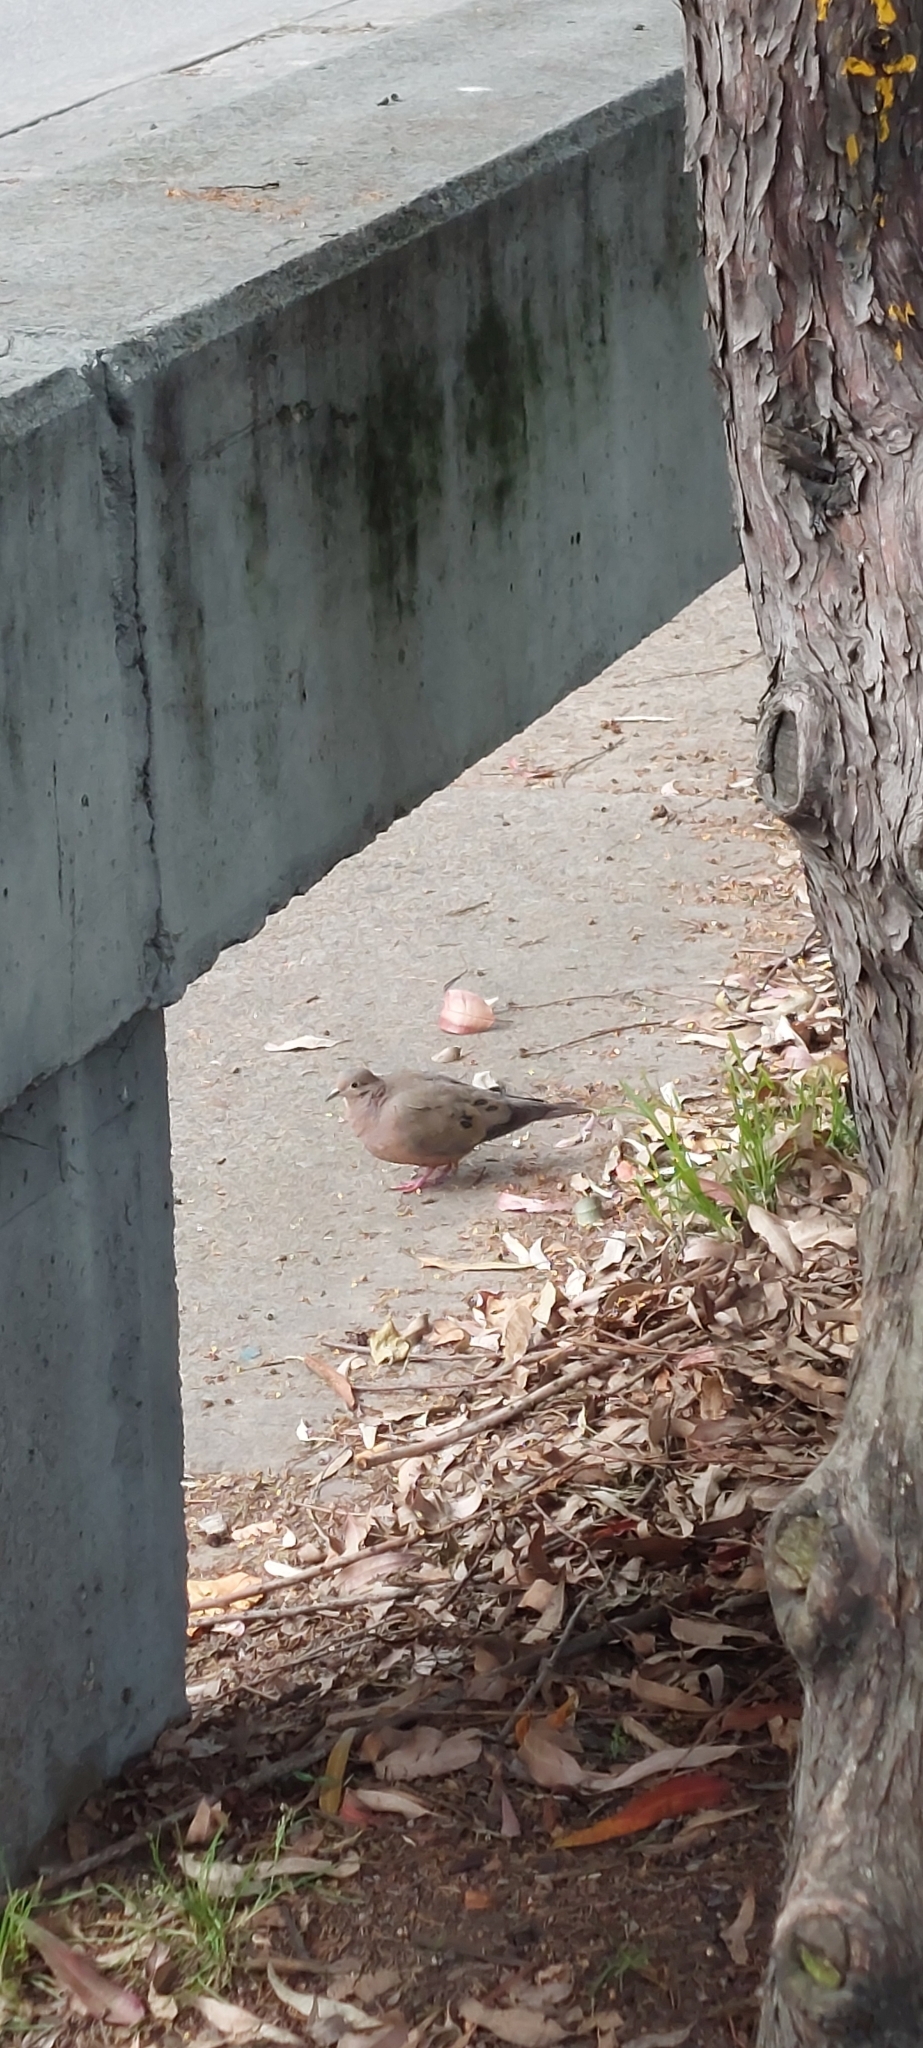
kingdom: Animalia
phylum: Chordata
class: Aves
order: Columbiformes
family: Columbidae
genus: Zenaida
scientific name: Zenaida auriculata
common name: Eared dove
